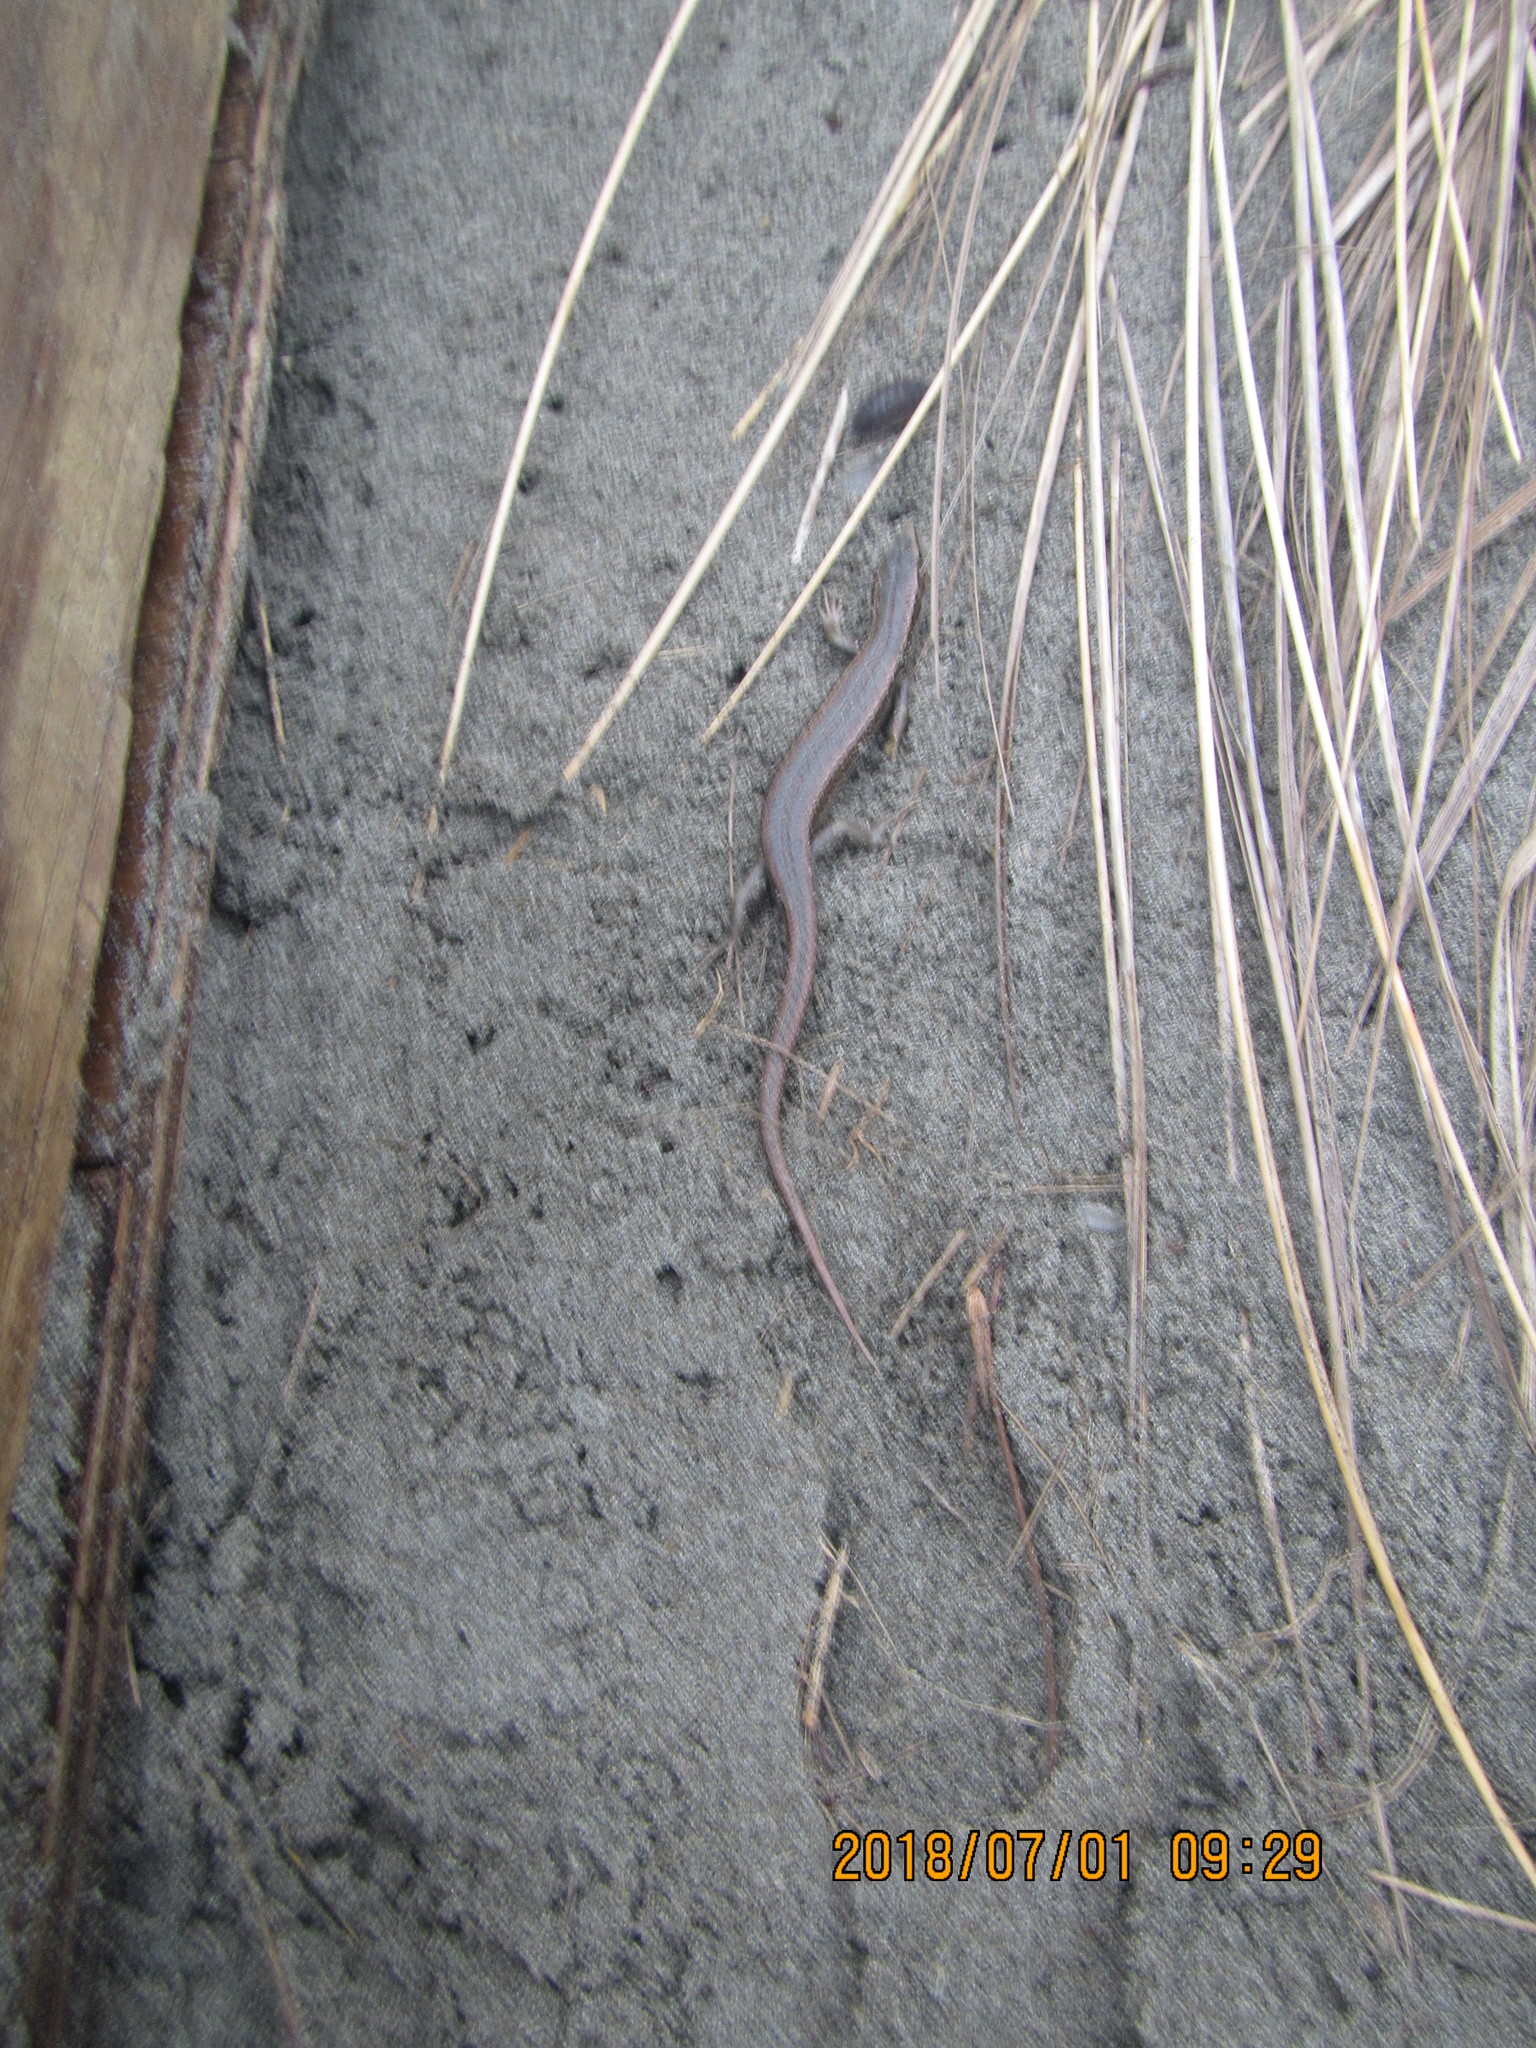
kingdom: Animalia
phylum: Chordata
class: Squamata
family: Scincidae
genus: Oligosoma
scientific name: Oligosoma polychroma
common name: Common new zealand skink
